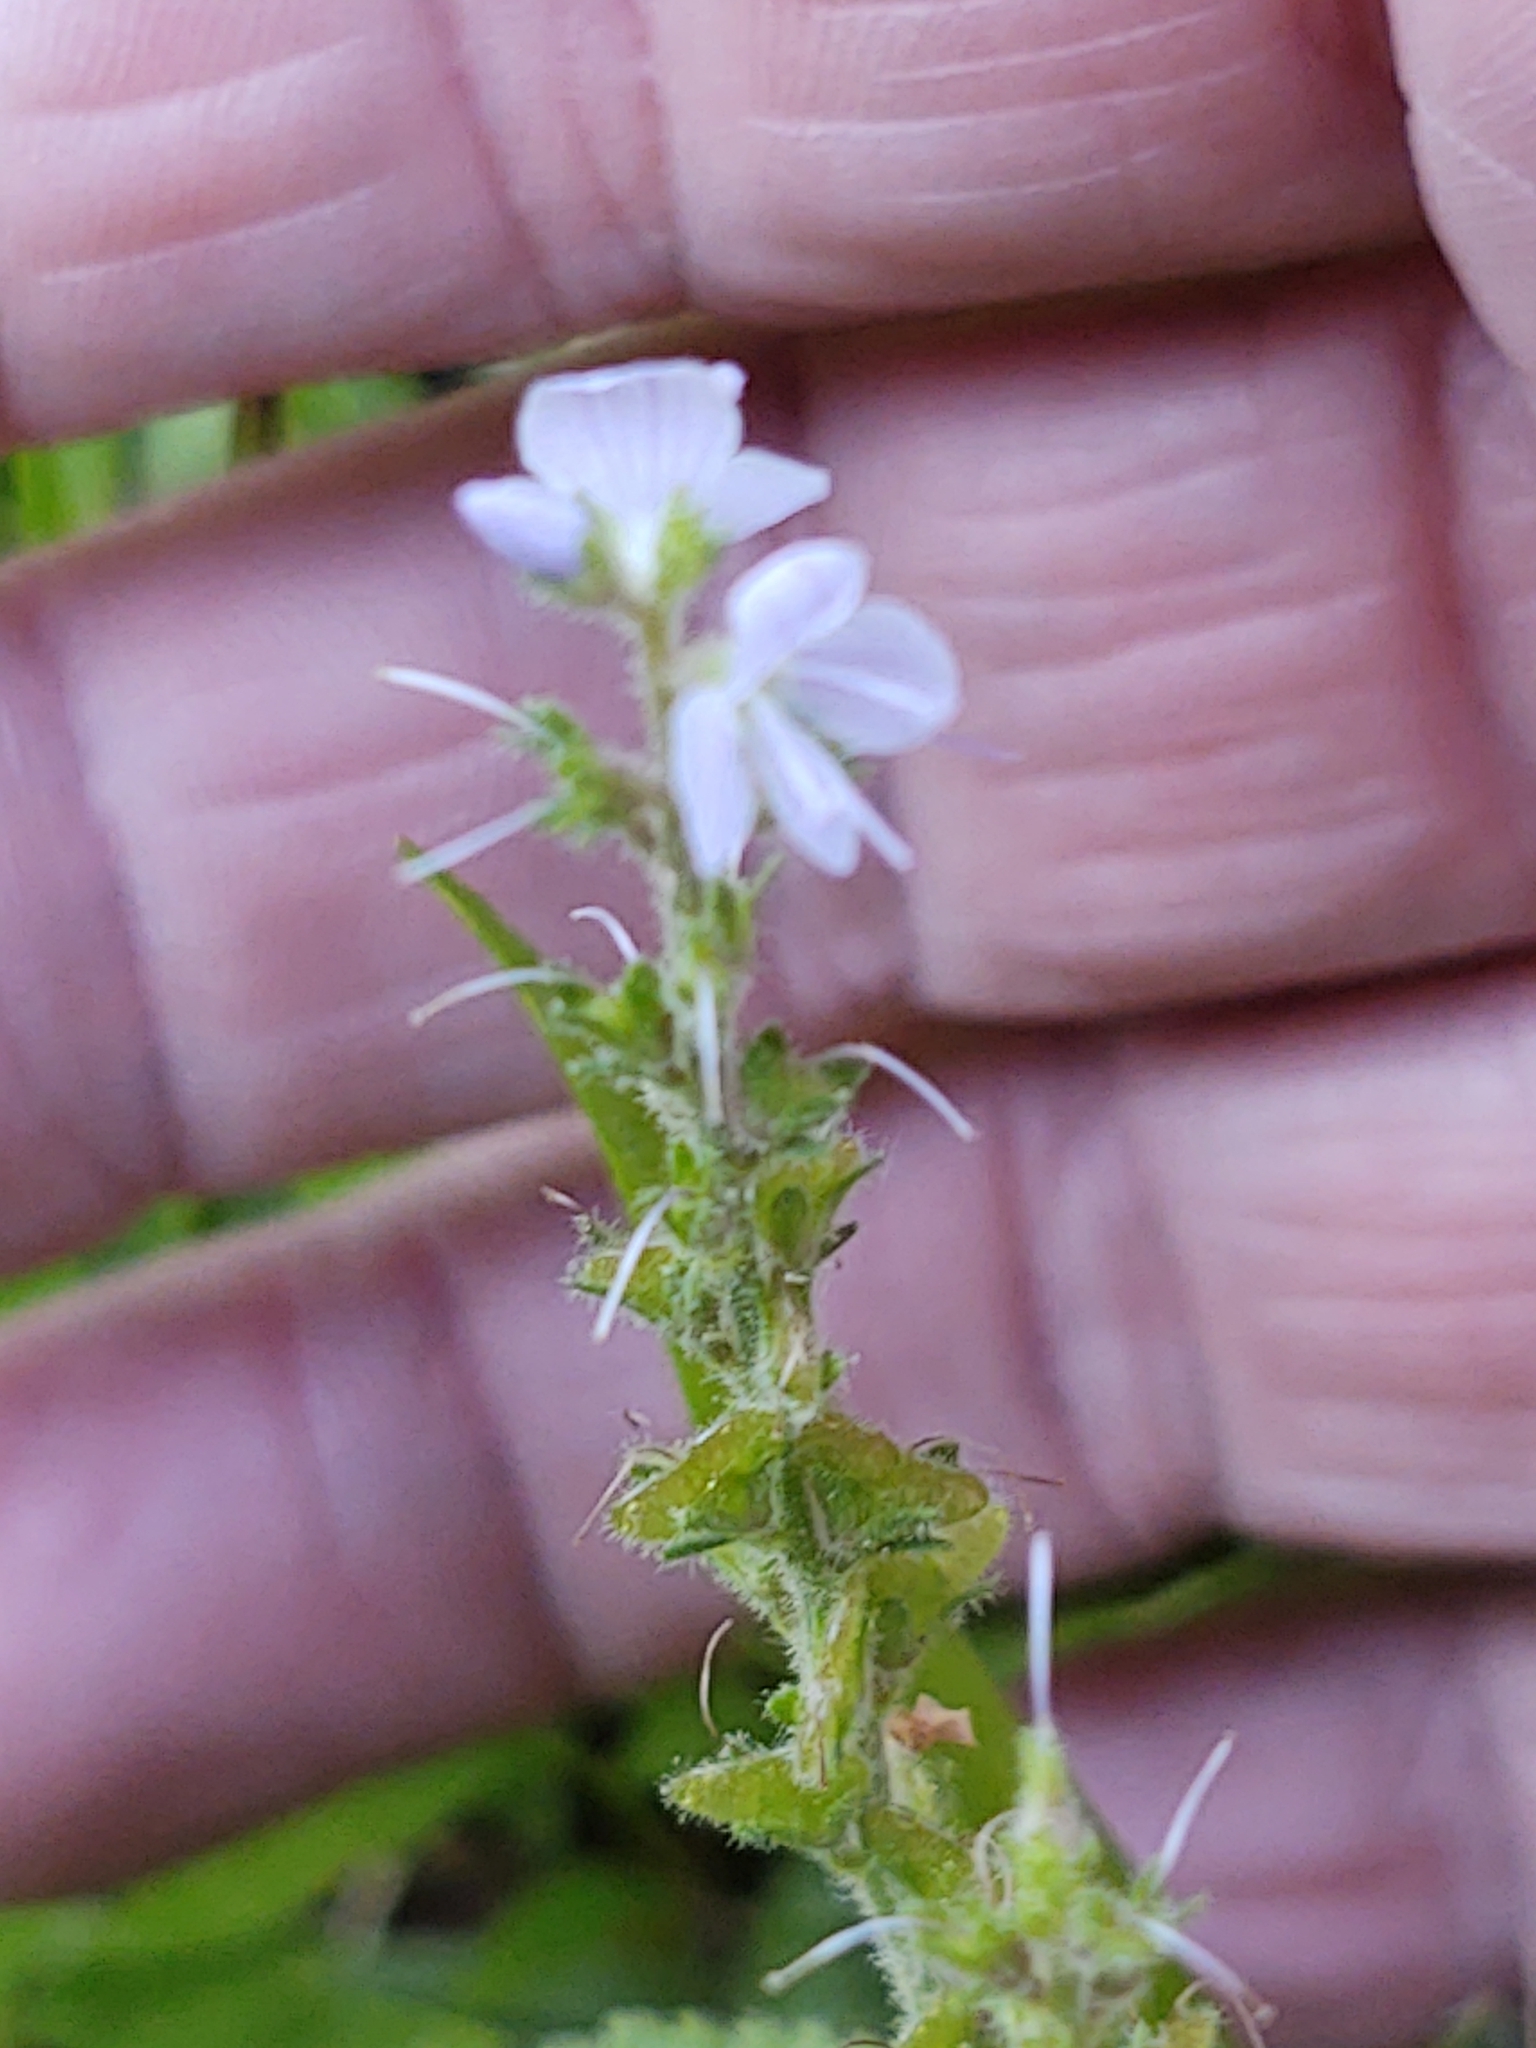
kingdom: Plantae
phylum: Tracheophyta
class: Magnoliopsida
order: Lamiales
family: Plantaginaceae
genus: Veronica
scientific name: Veronica officinalis
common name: Common speedwell
